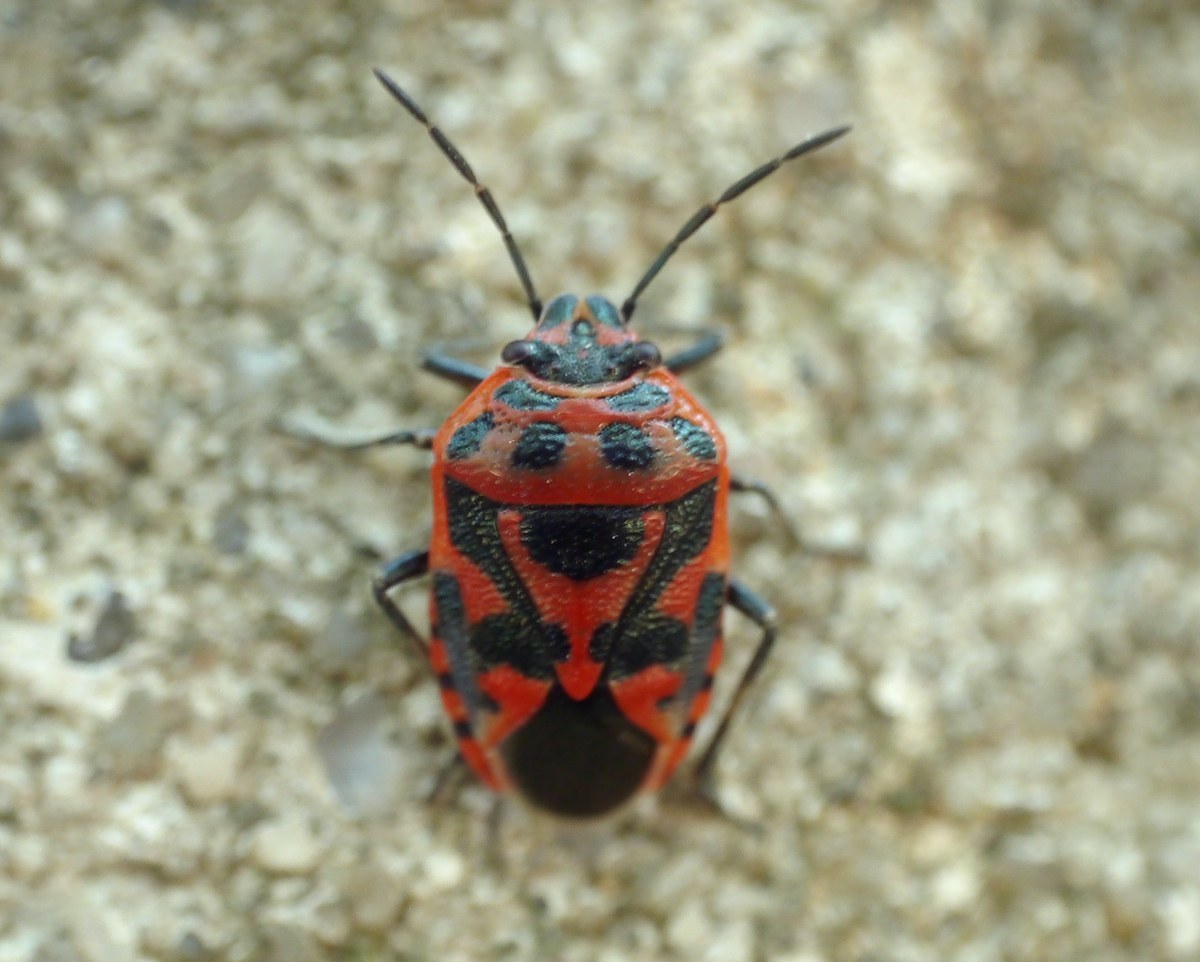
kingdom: Animalia
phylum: Arthropoda
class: Insecta
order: Hemiptera
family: Pentatomidae
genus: Eurydema
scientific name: Eurydema ornata
